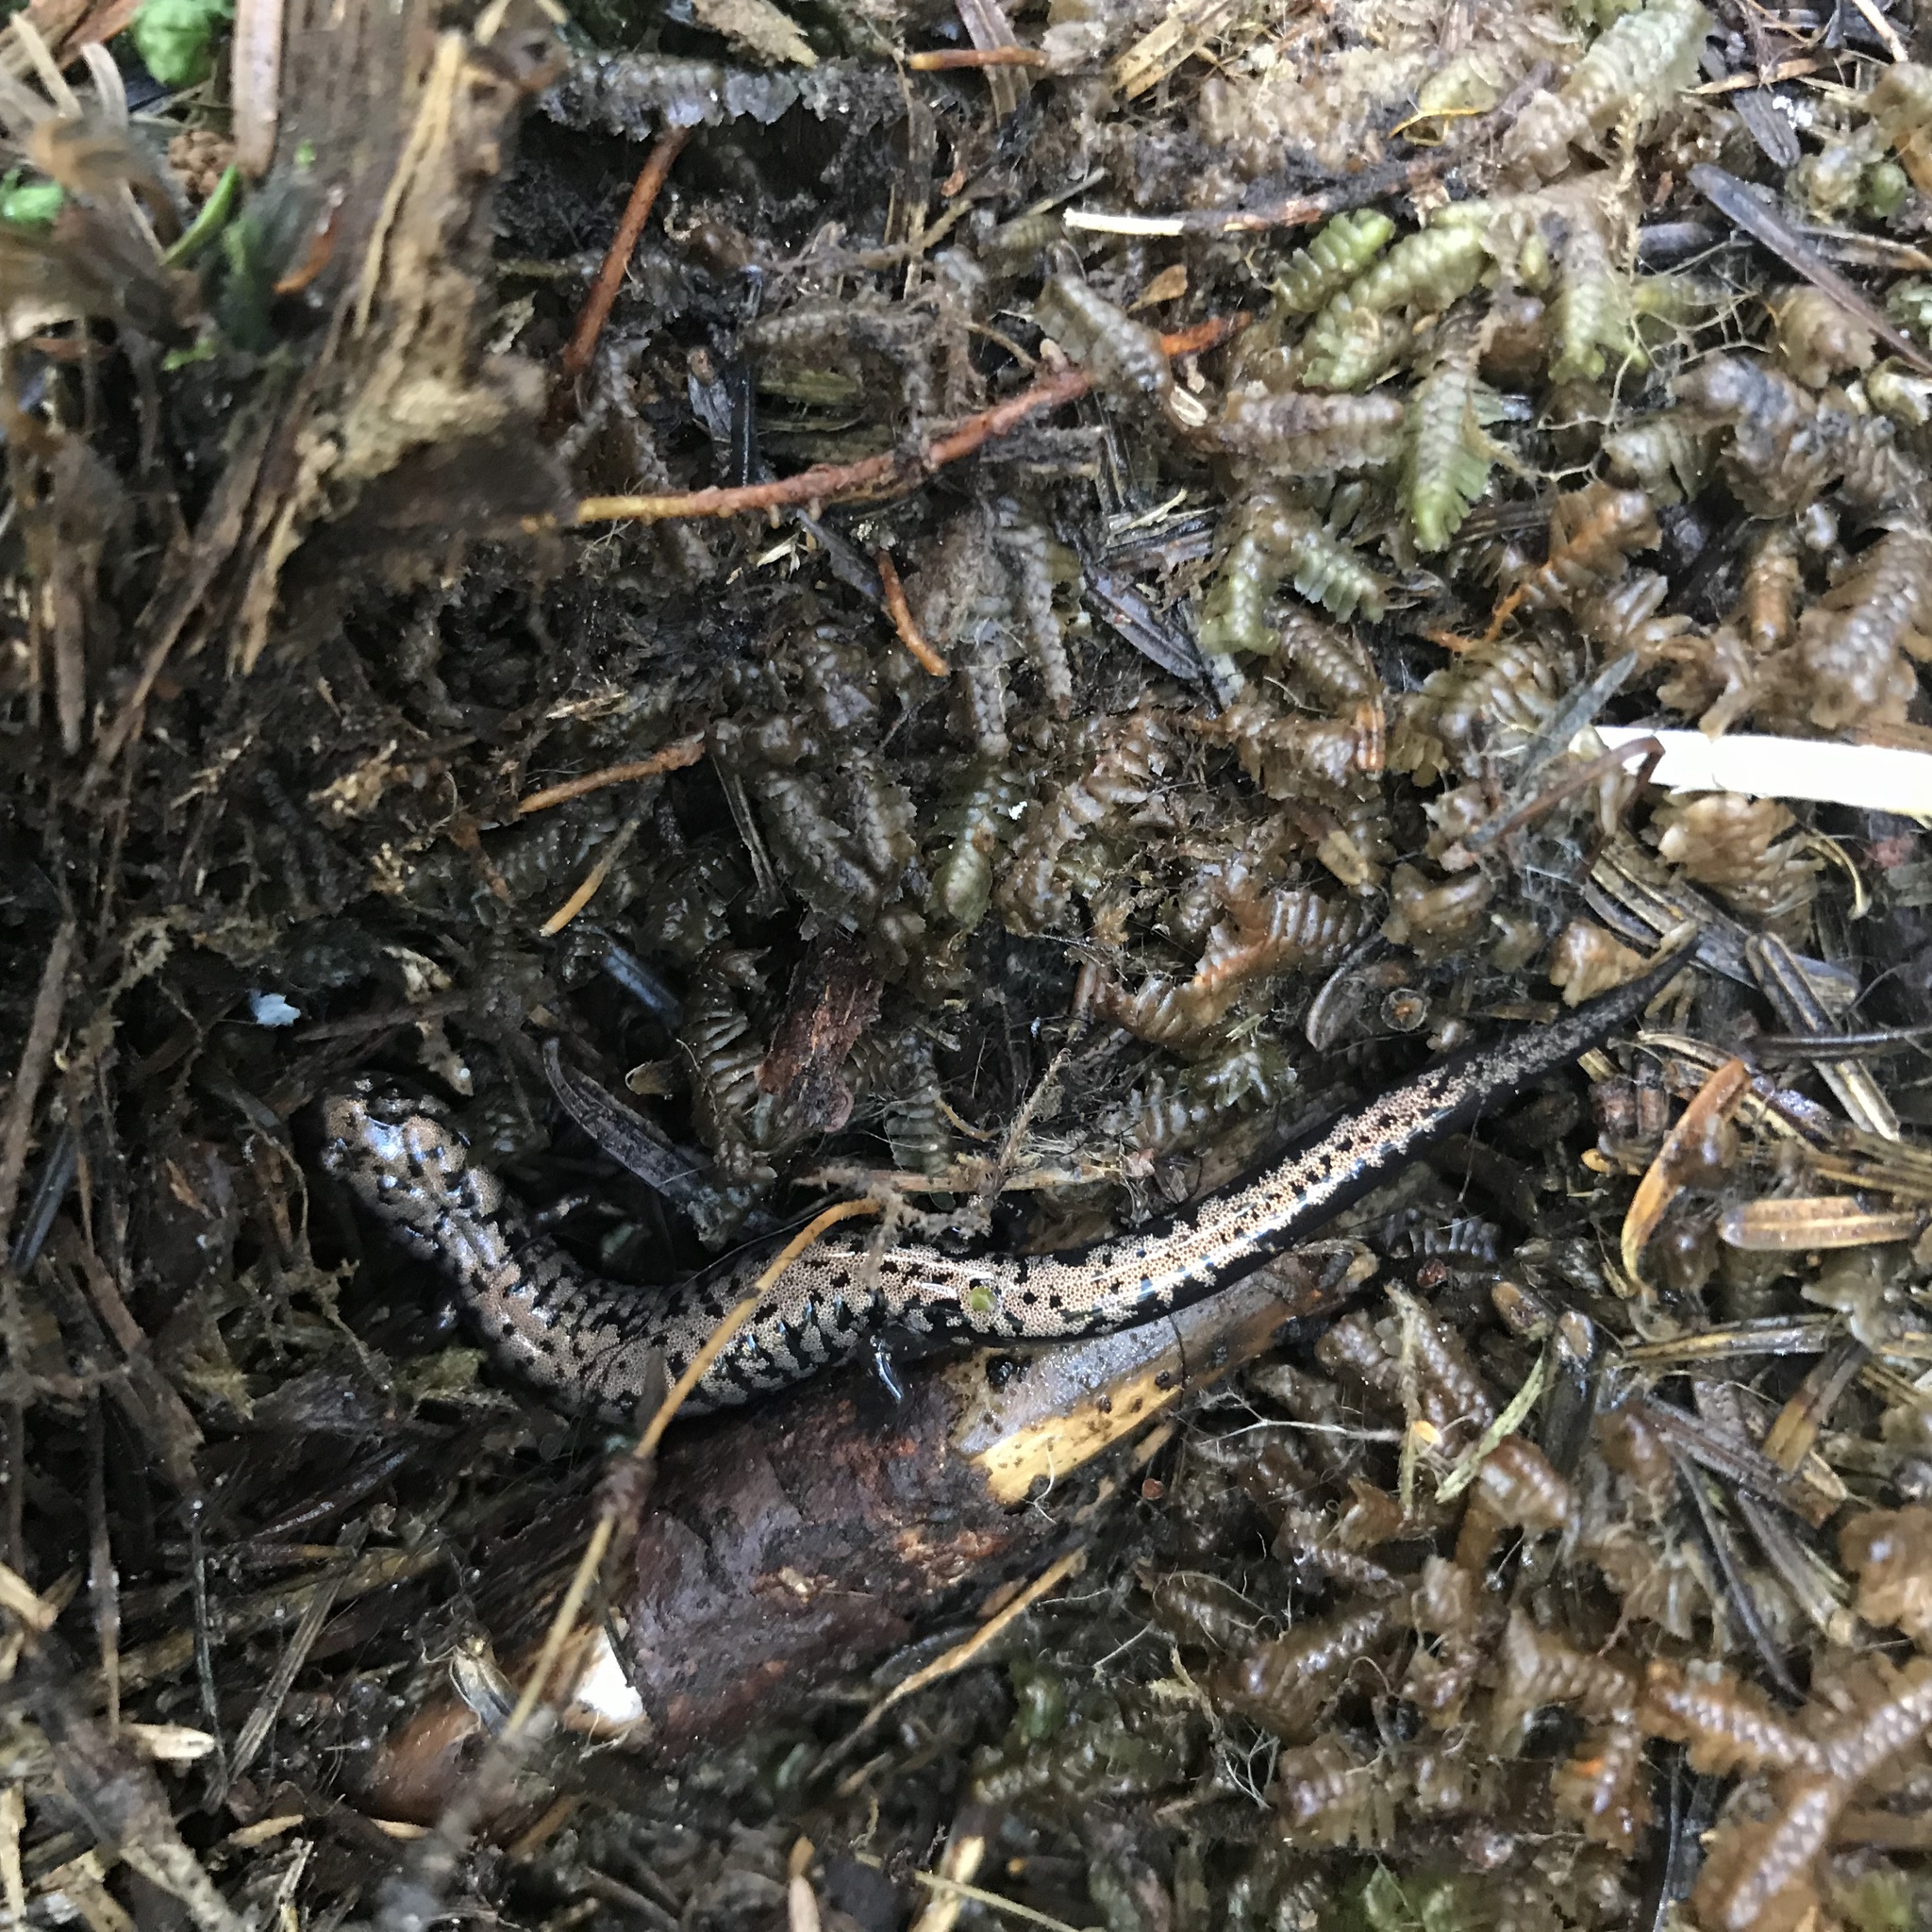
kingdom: Animalia
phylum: Chordata
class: Amphibia
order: Caudata
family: Plethodontidae
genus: Plethodon
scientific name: Plethodon welleri
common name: Weller's salamander
